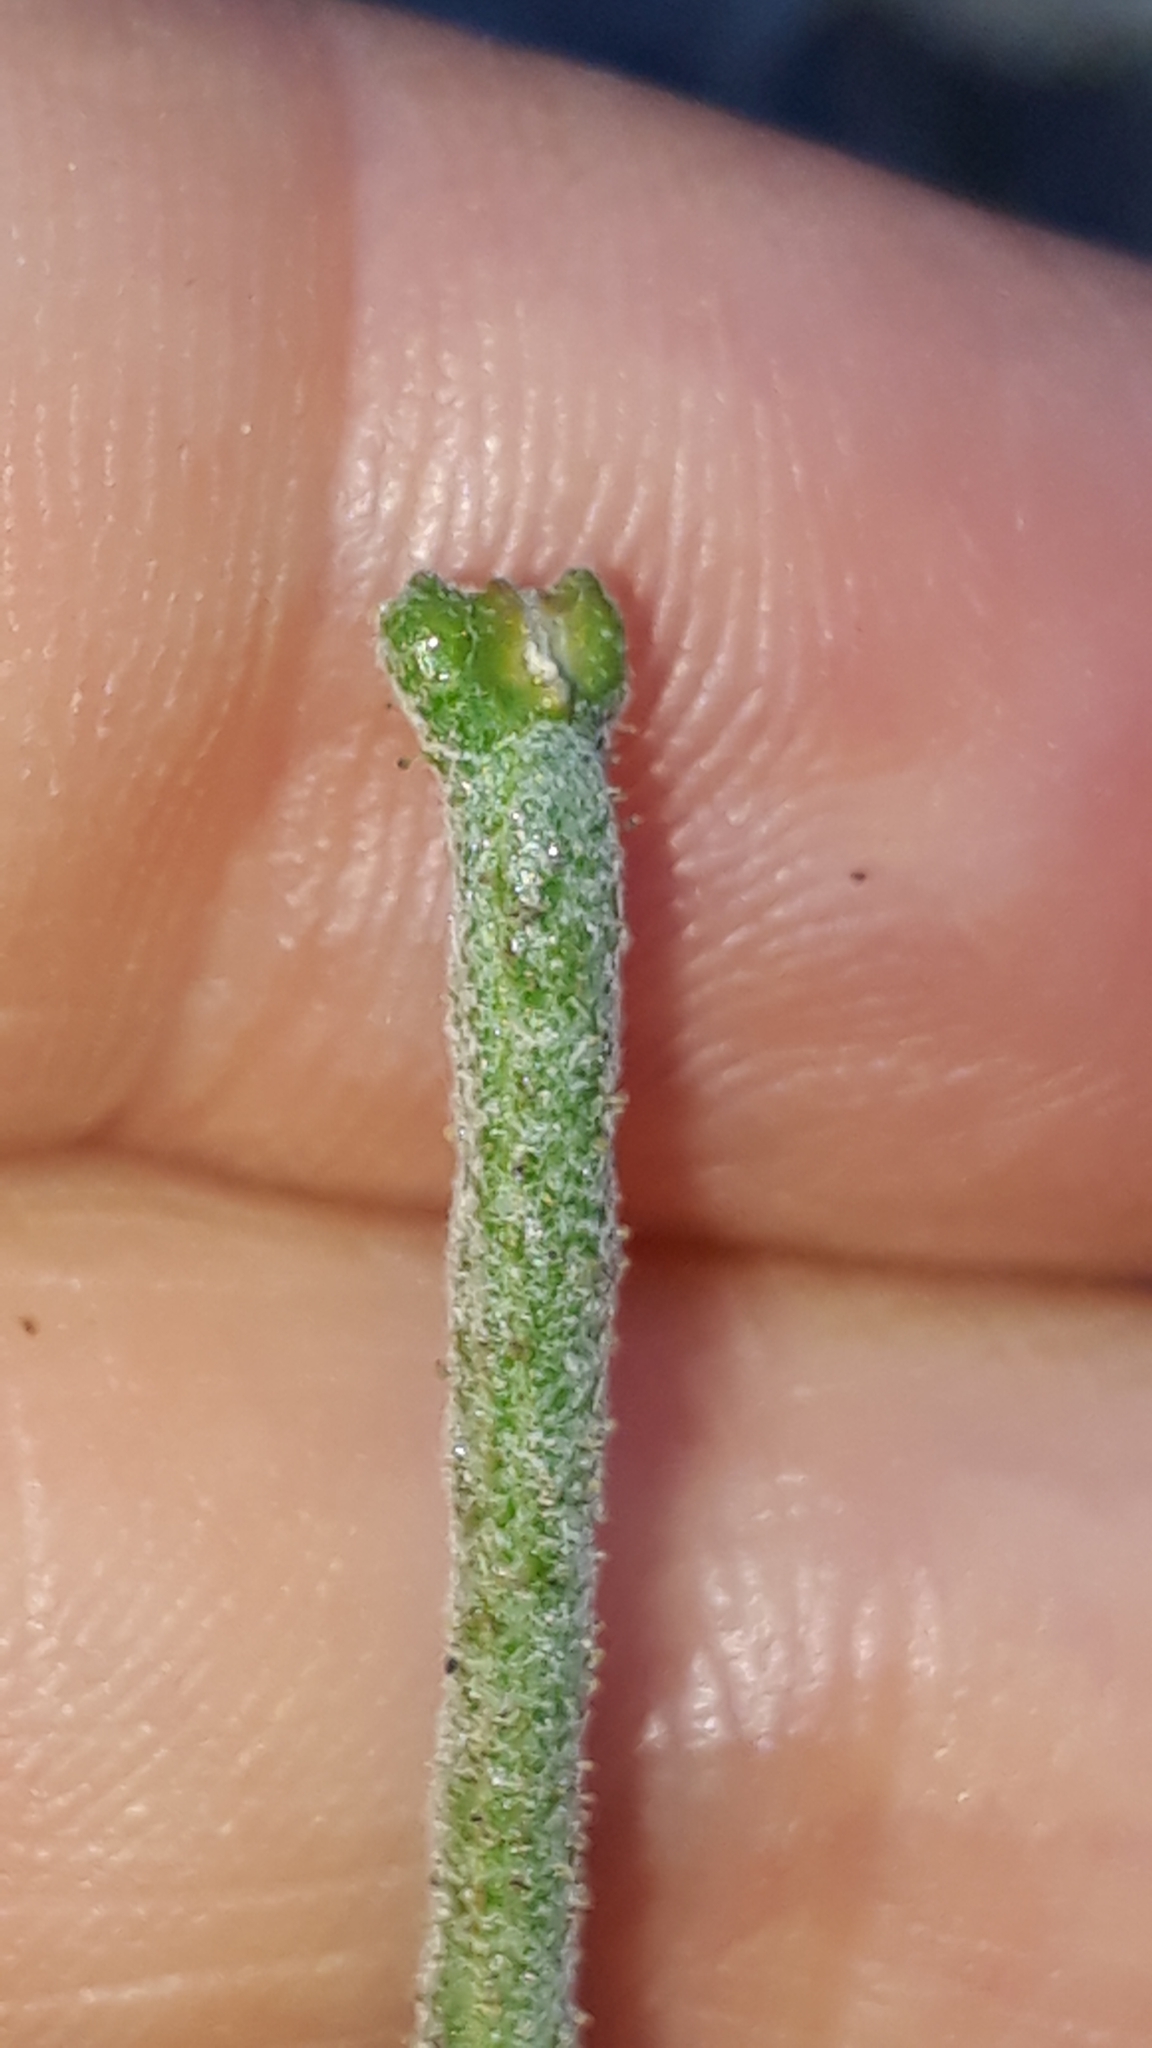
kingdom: Plantae
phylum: Tracheophyta
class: Magnoliopsida
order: Brassicales
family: Brassicaceae
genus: Matthiola
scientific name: Matthiola fruticulosa
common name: Sad stock
